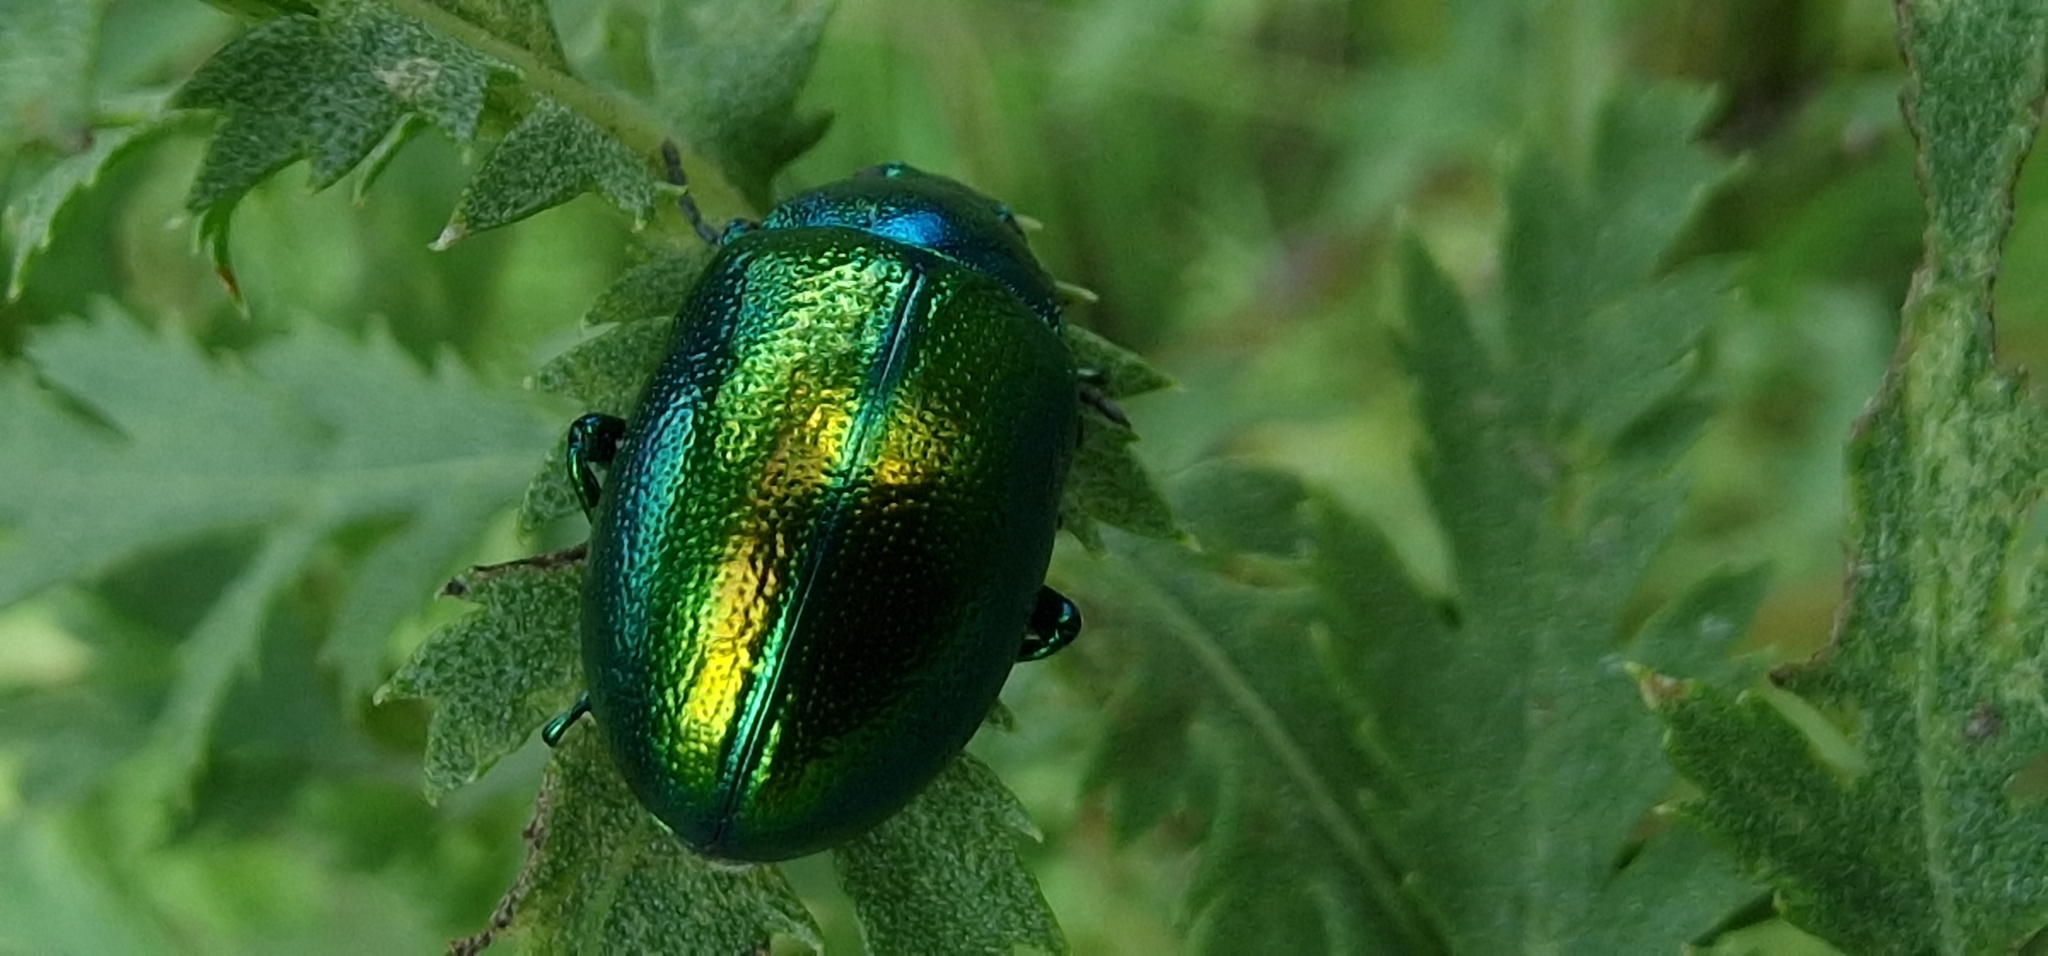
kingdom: Animalia
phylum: Arthropoda
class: Insecta
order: Coleoptera
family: Chrysomelidae
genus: Chrysolina
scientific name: Chrysolina graminis
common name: Tansey beetle
